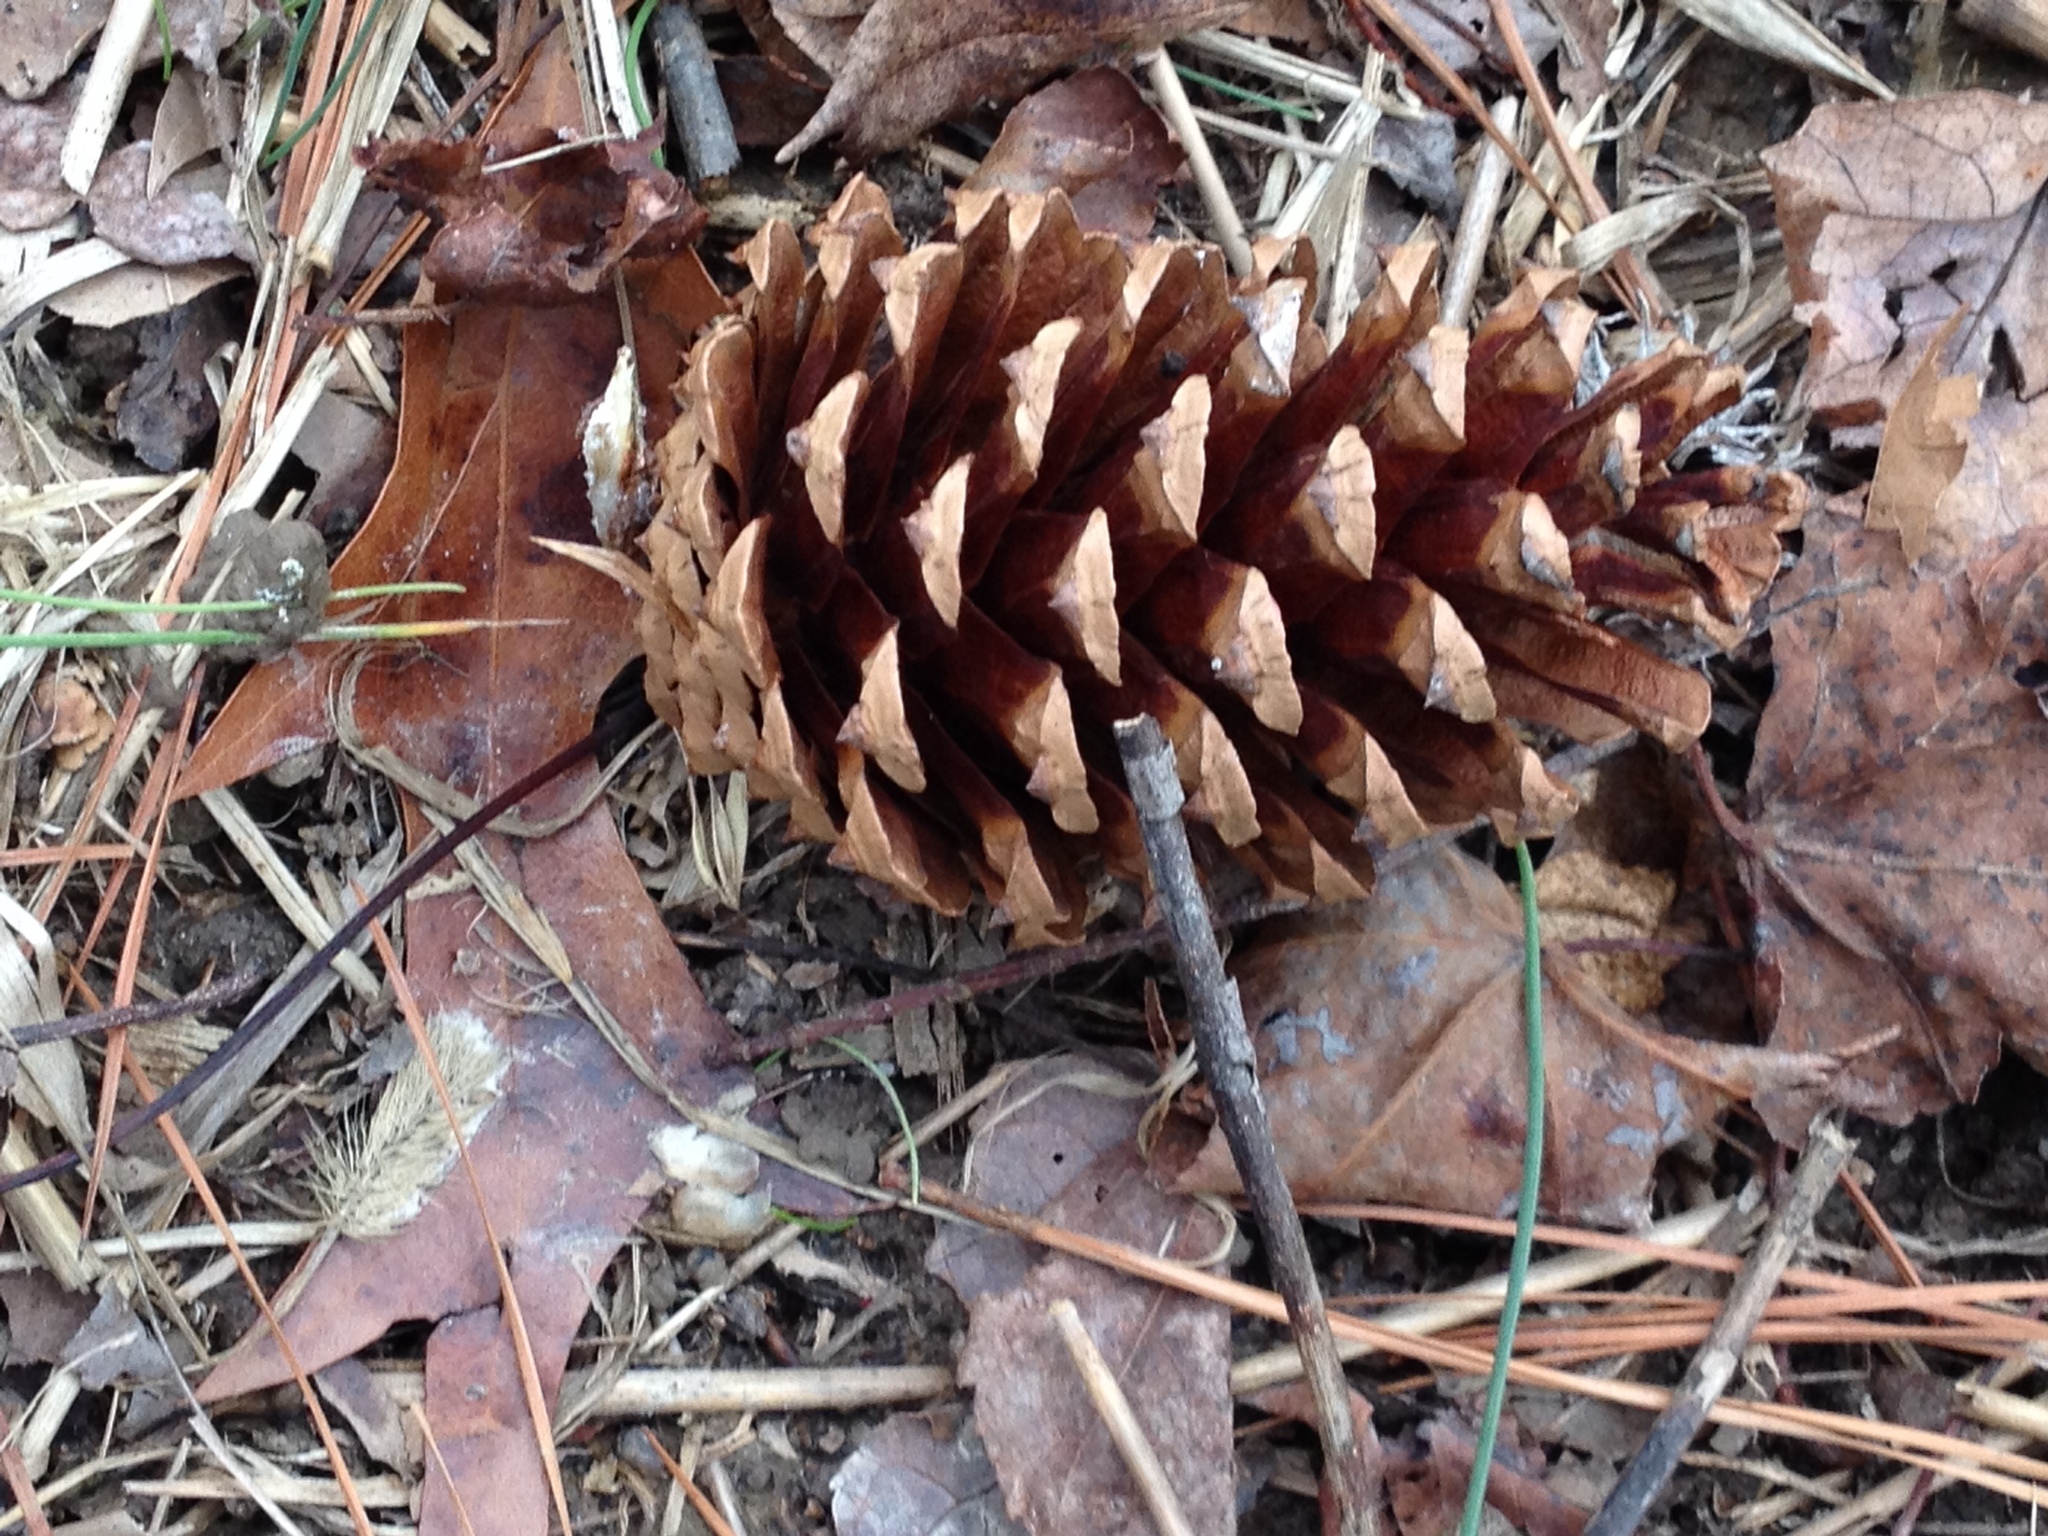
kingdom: Plantae
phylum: Tracheophyta
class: Pinopsida
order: Pinales
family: Pinaceae
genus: Pinus
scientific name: Pinus taeda
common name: Loblolly pine
